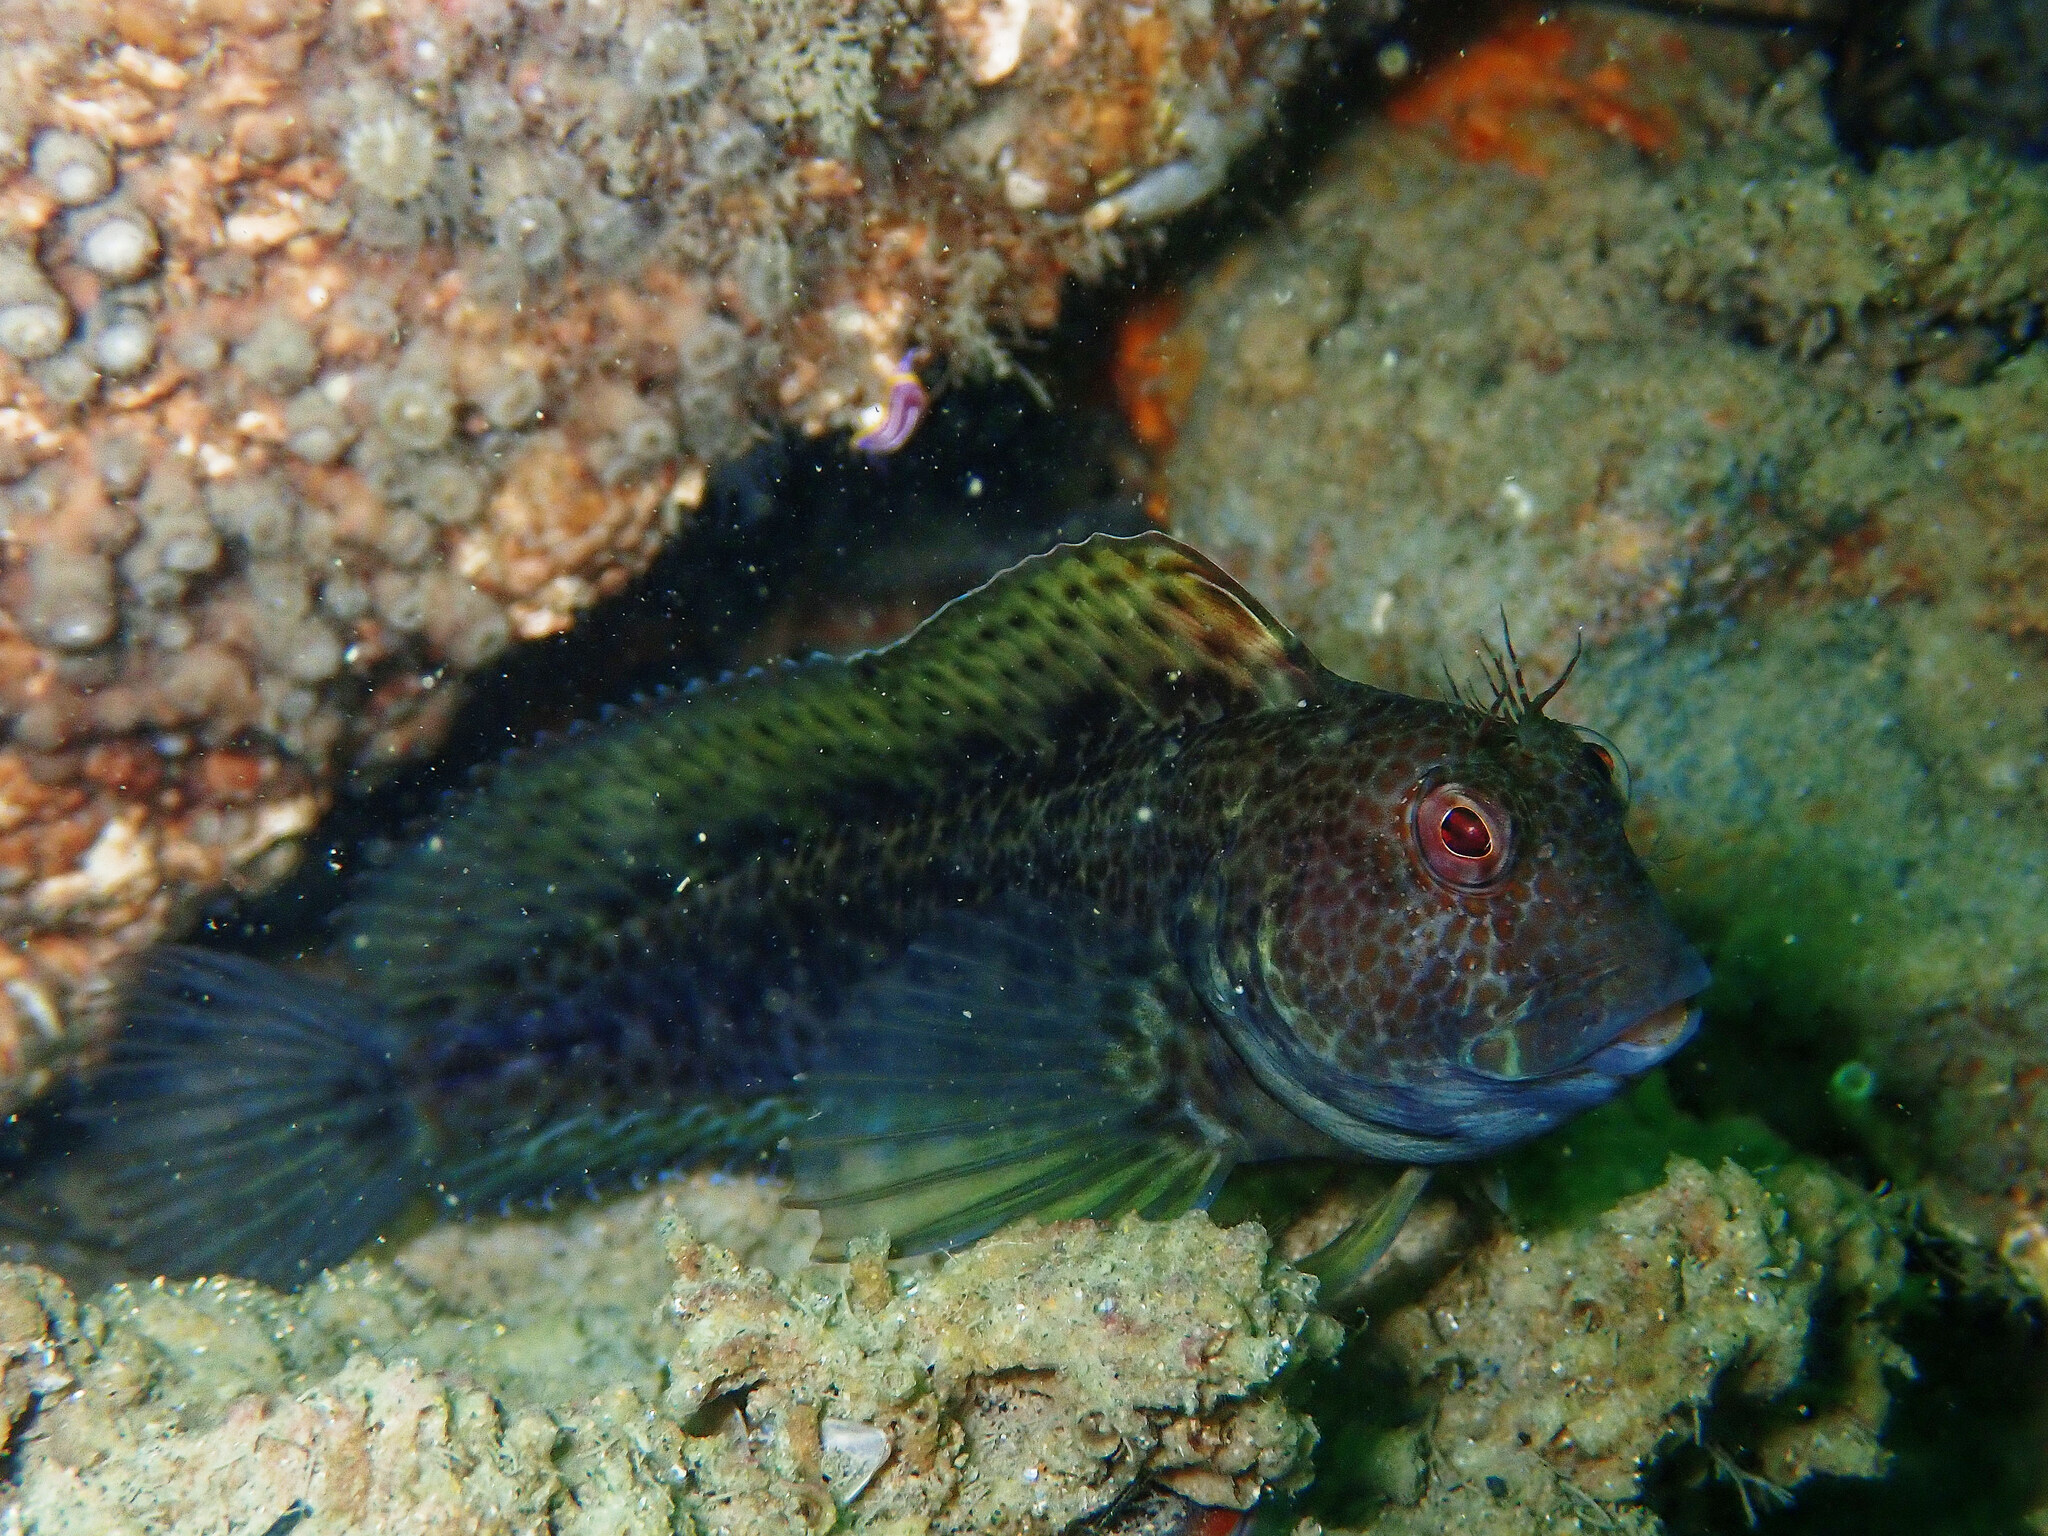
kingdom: Animalia
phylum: Chordata
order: Perciformes
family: Blenniidae
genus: Parablennius
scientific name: Parablennius pilicornis
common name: Ringneck blenny
